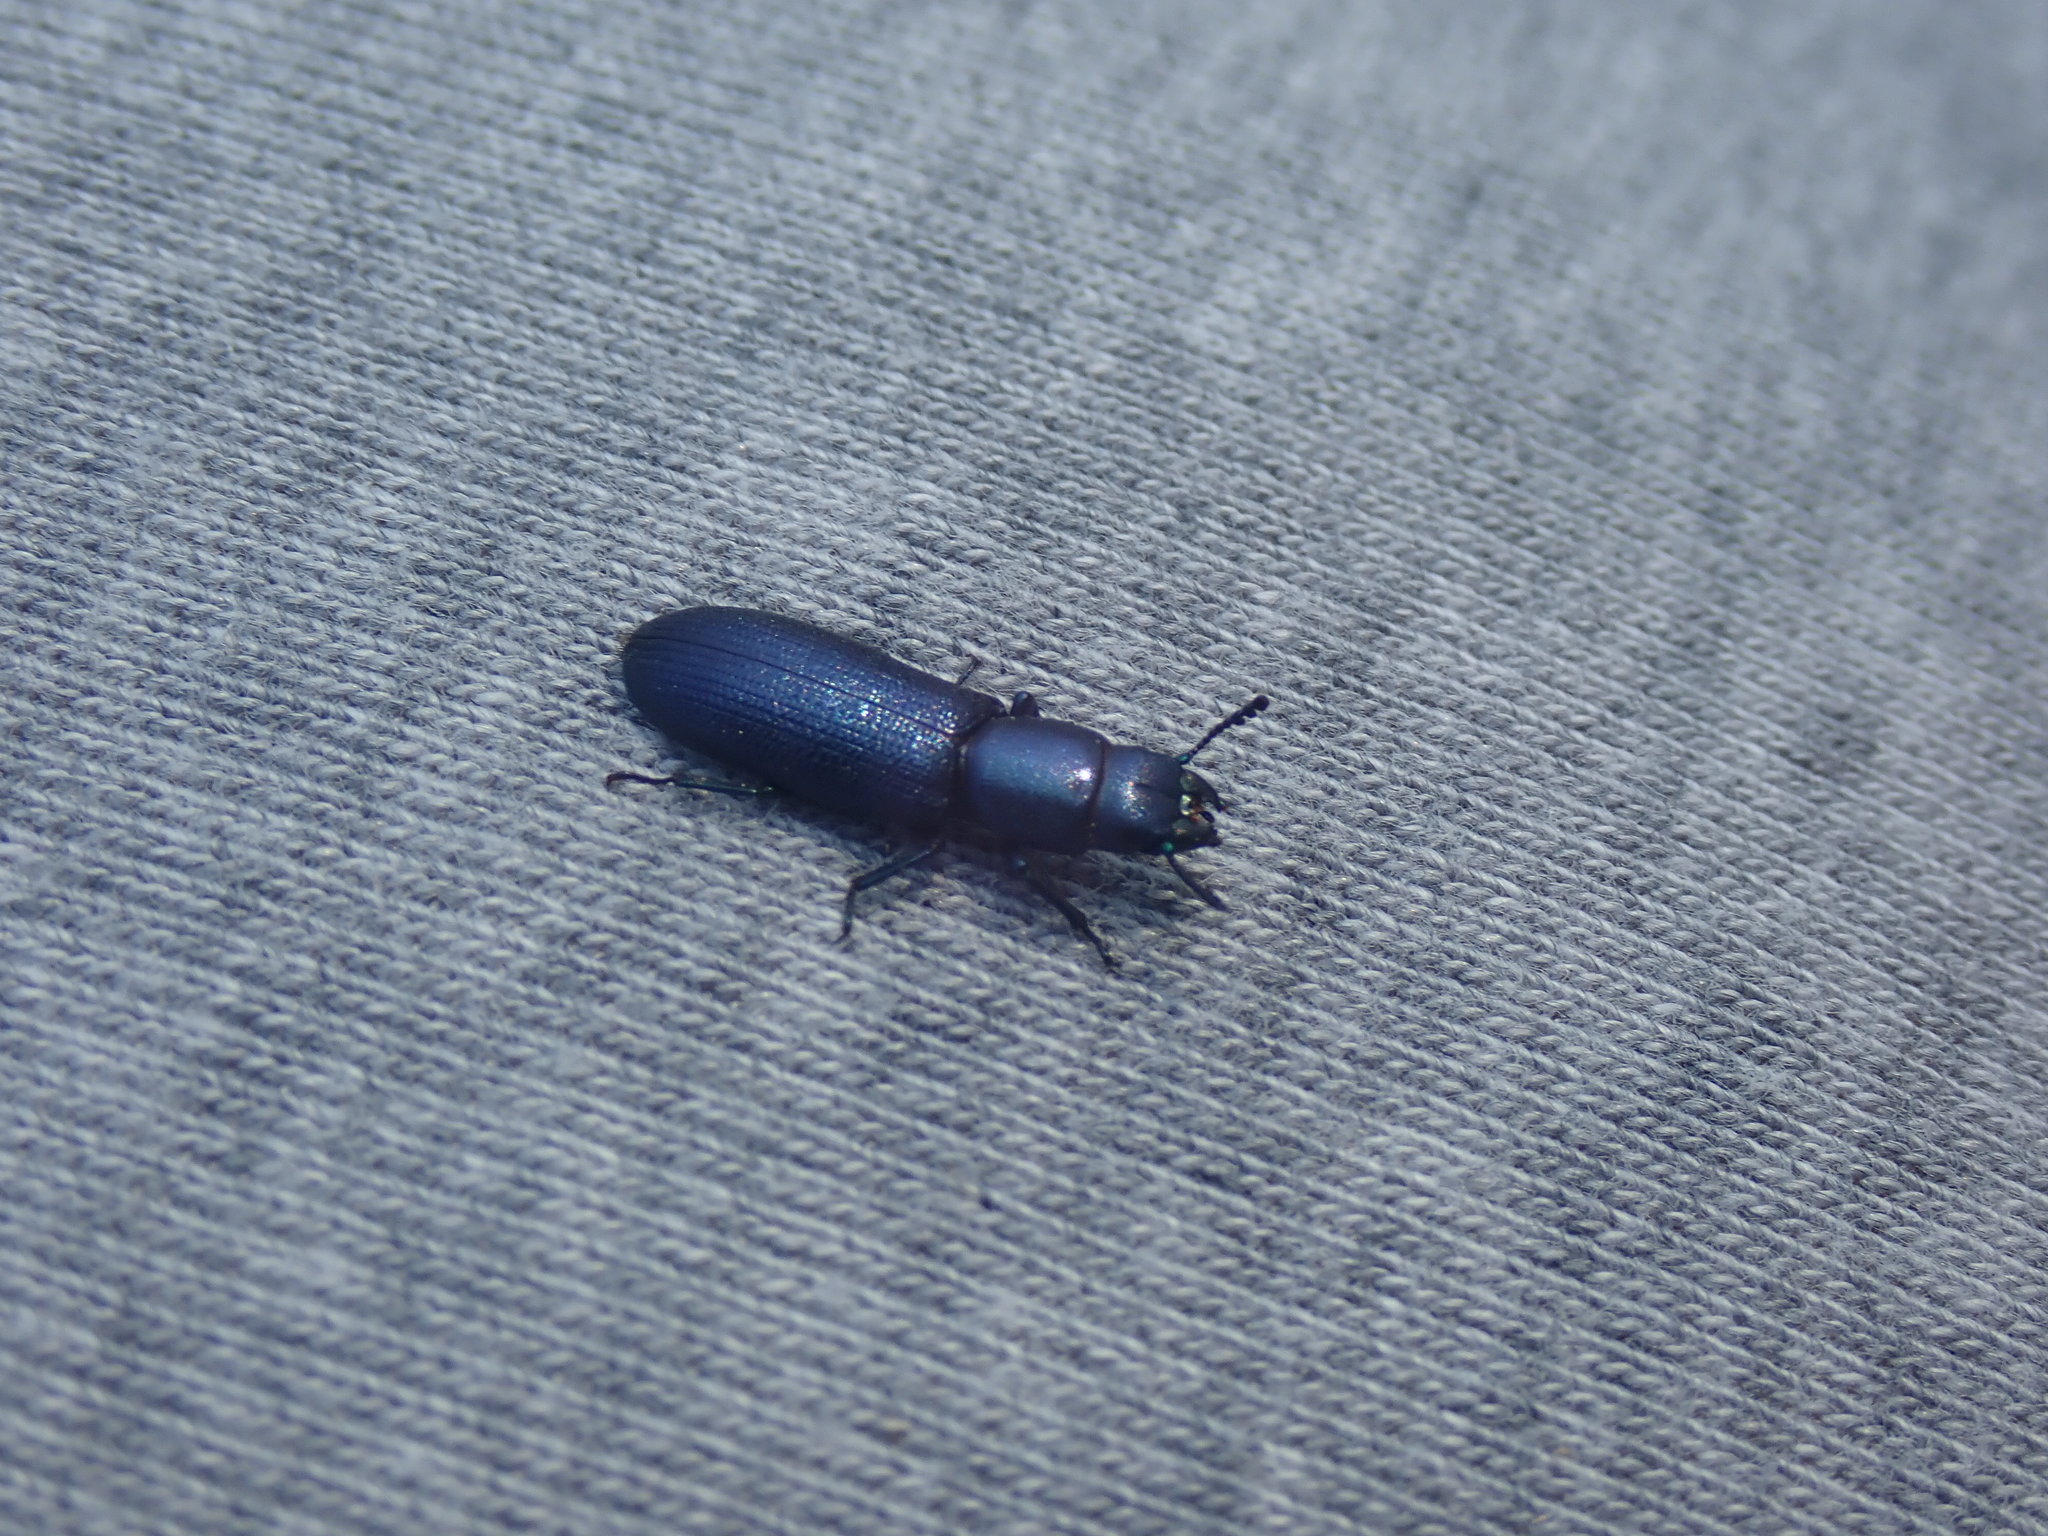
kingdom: Animalia
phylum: Arthropoda
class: Insecta
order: Coleoptera
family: Trogossitidae
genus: Temnoscheila
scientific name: Temnoscheila caerulea
